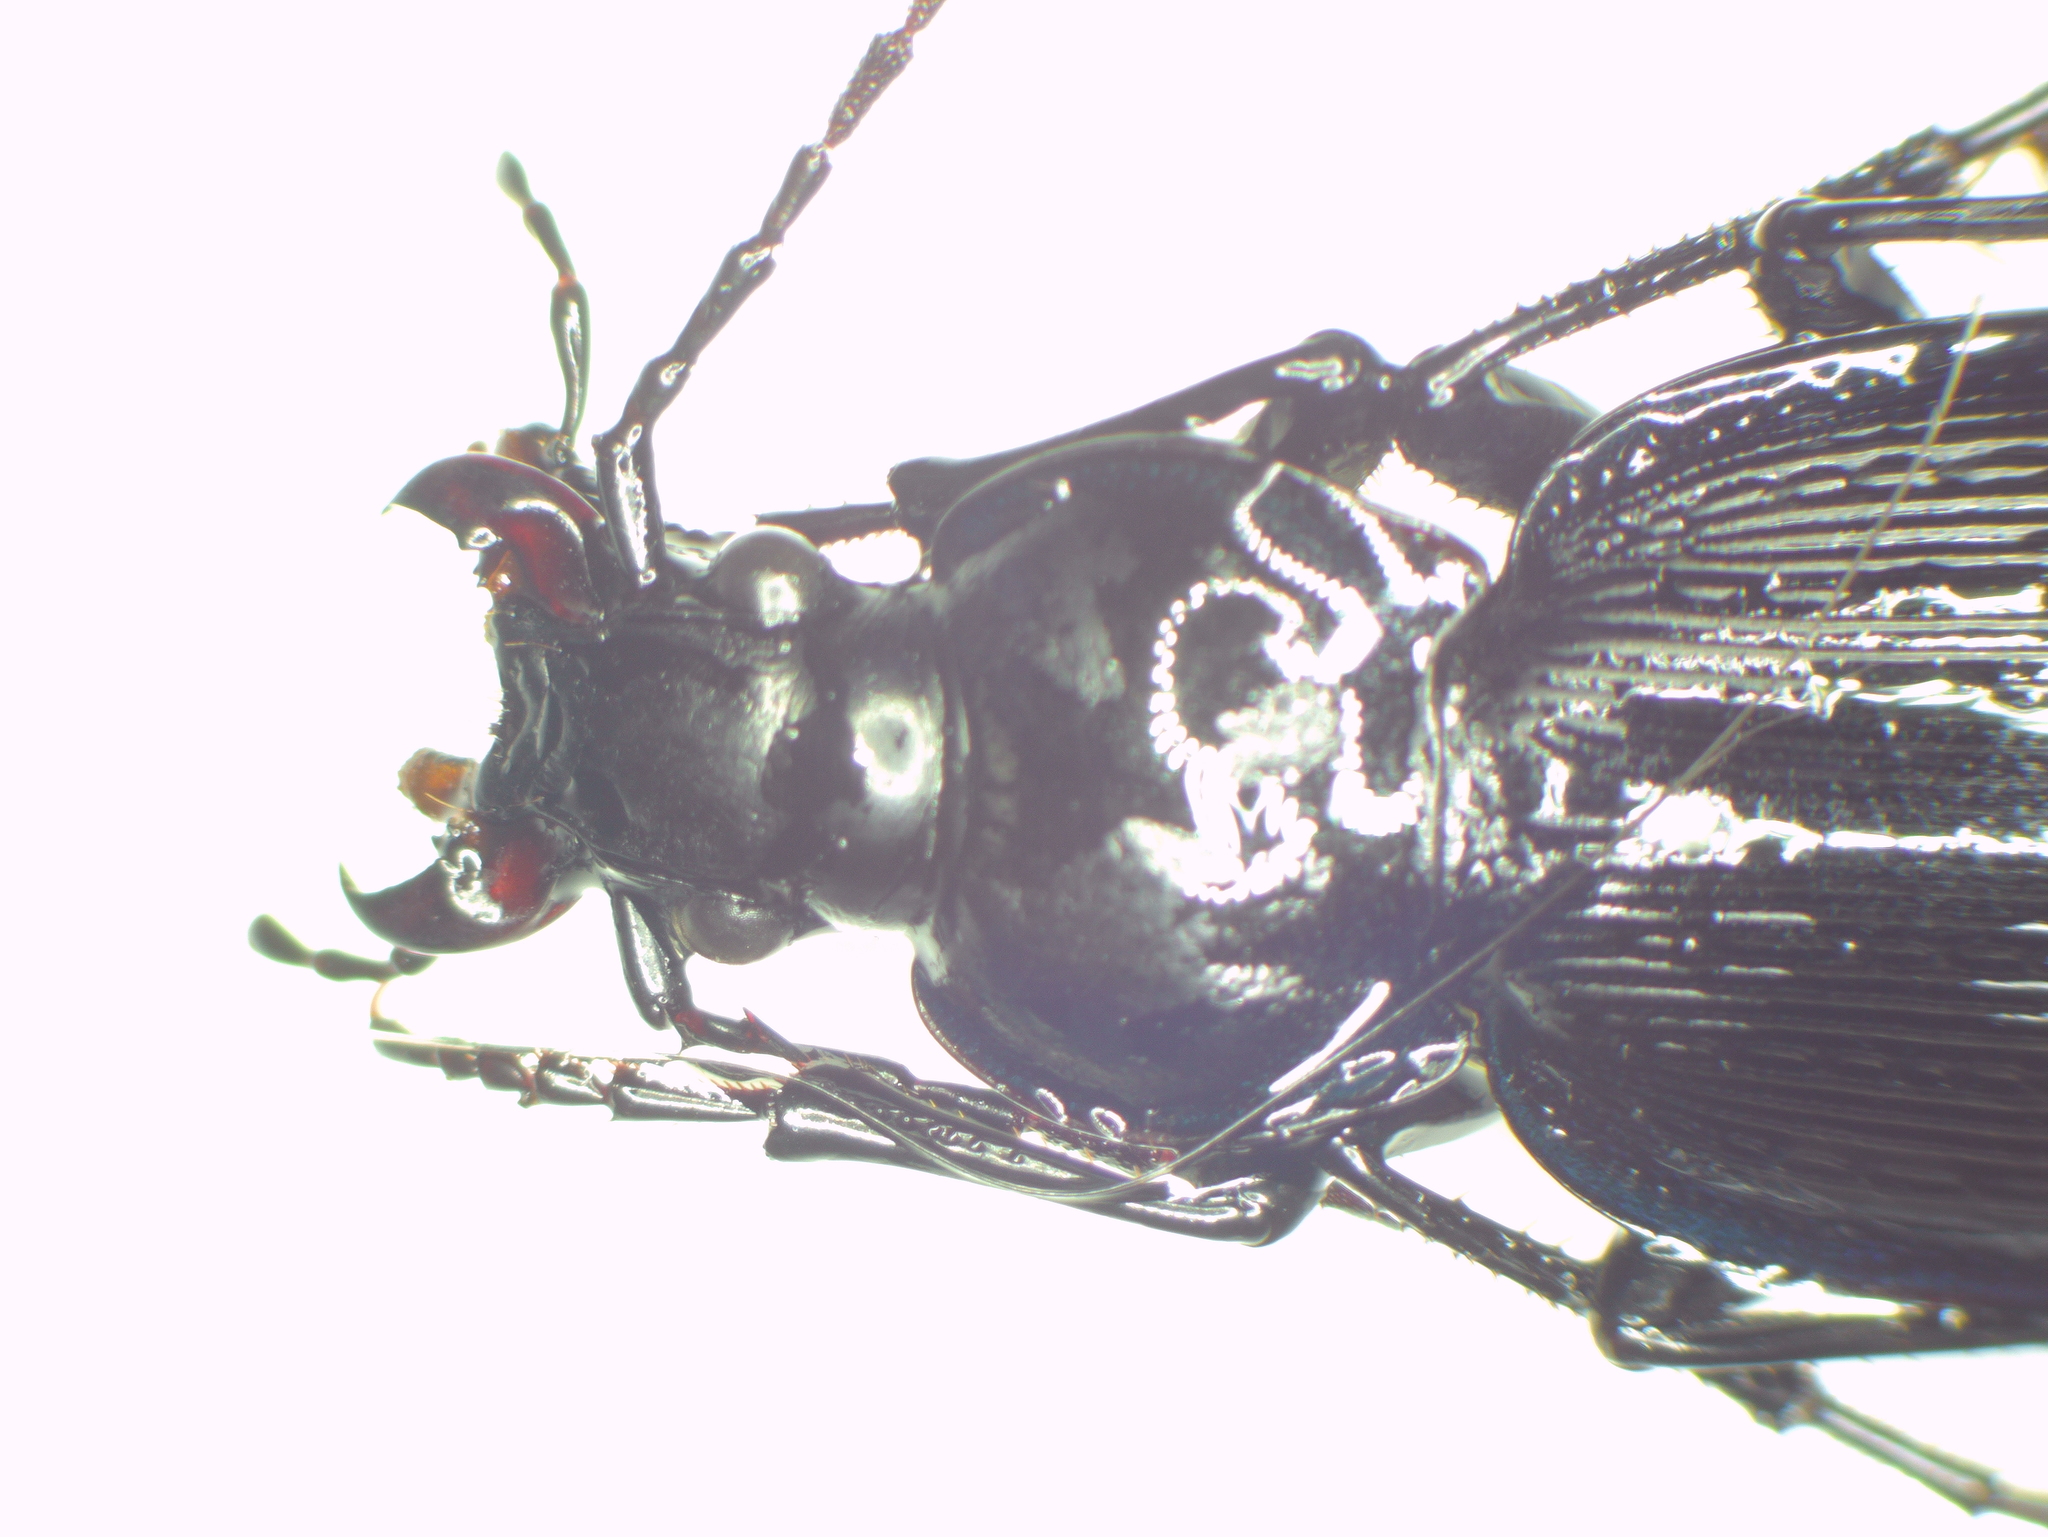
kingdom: Animalia
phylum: Arthropoda
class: Insecta
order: Coleoptera
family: Carabidae
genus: Carabus
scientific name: Carabus goryi
